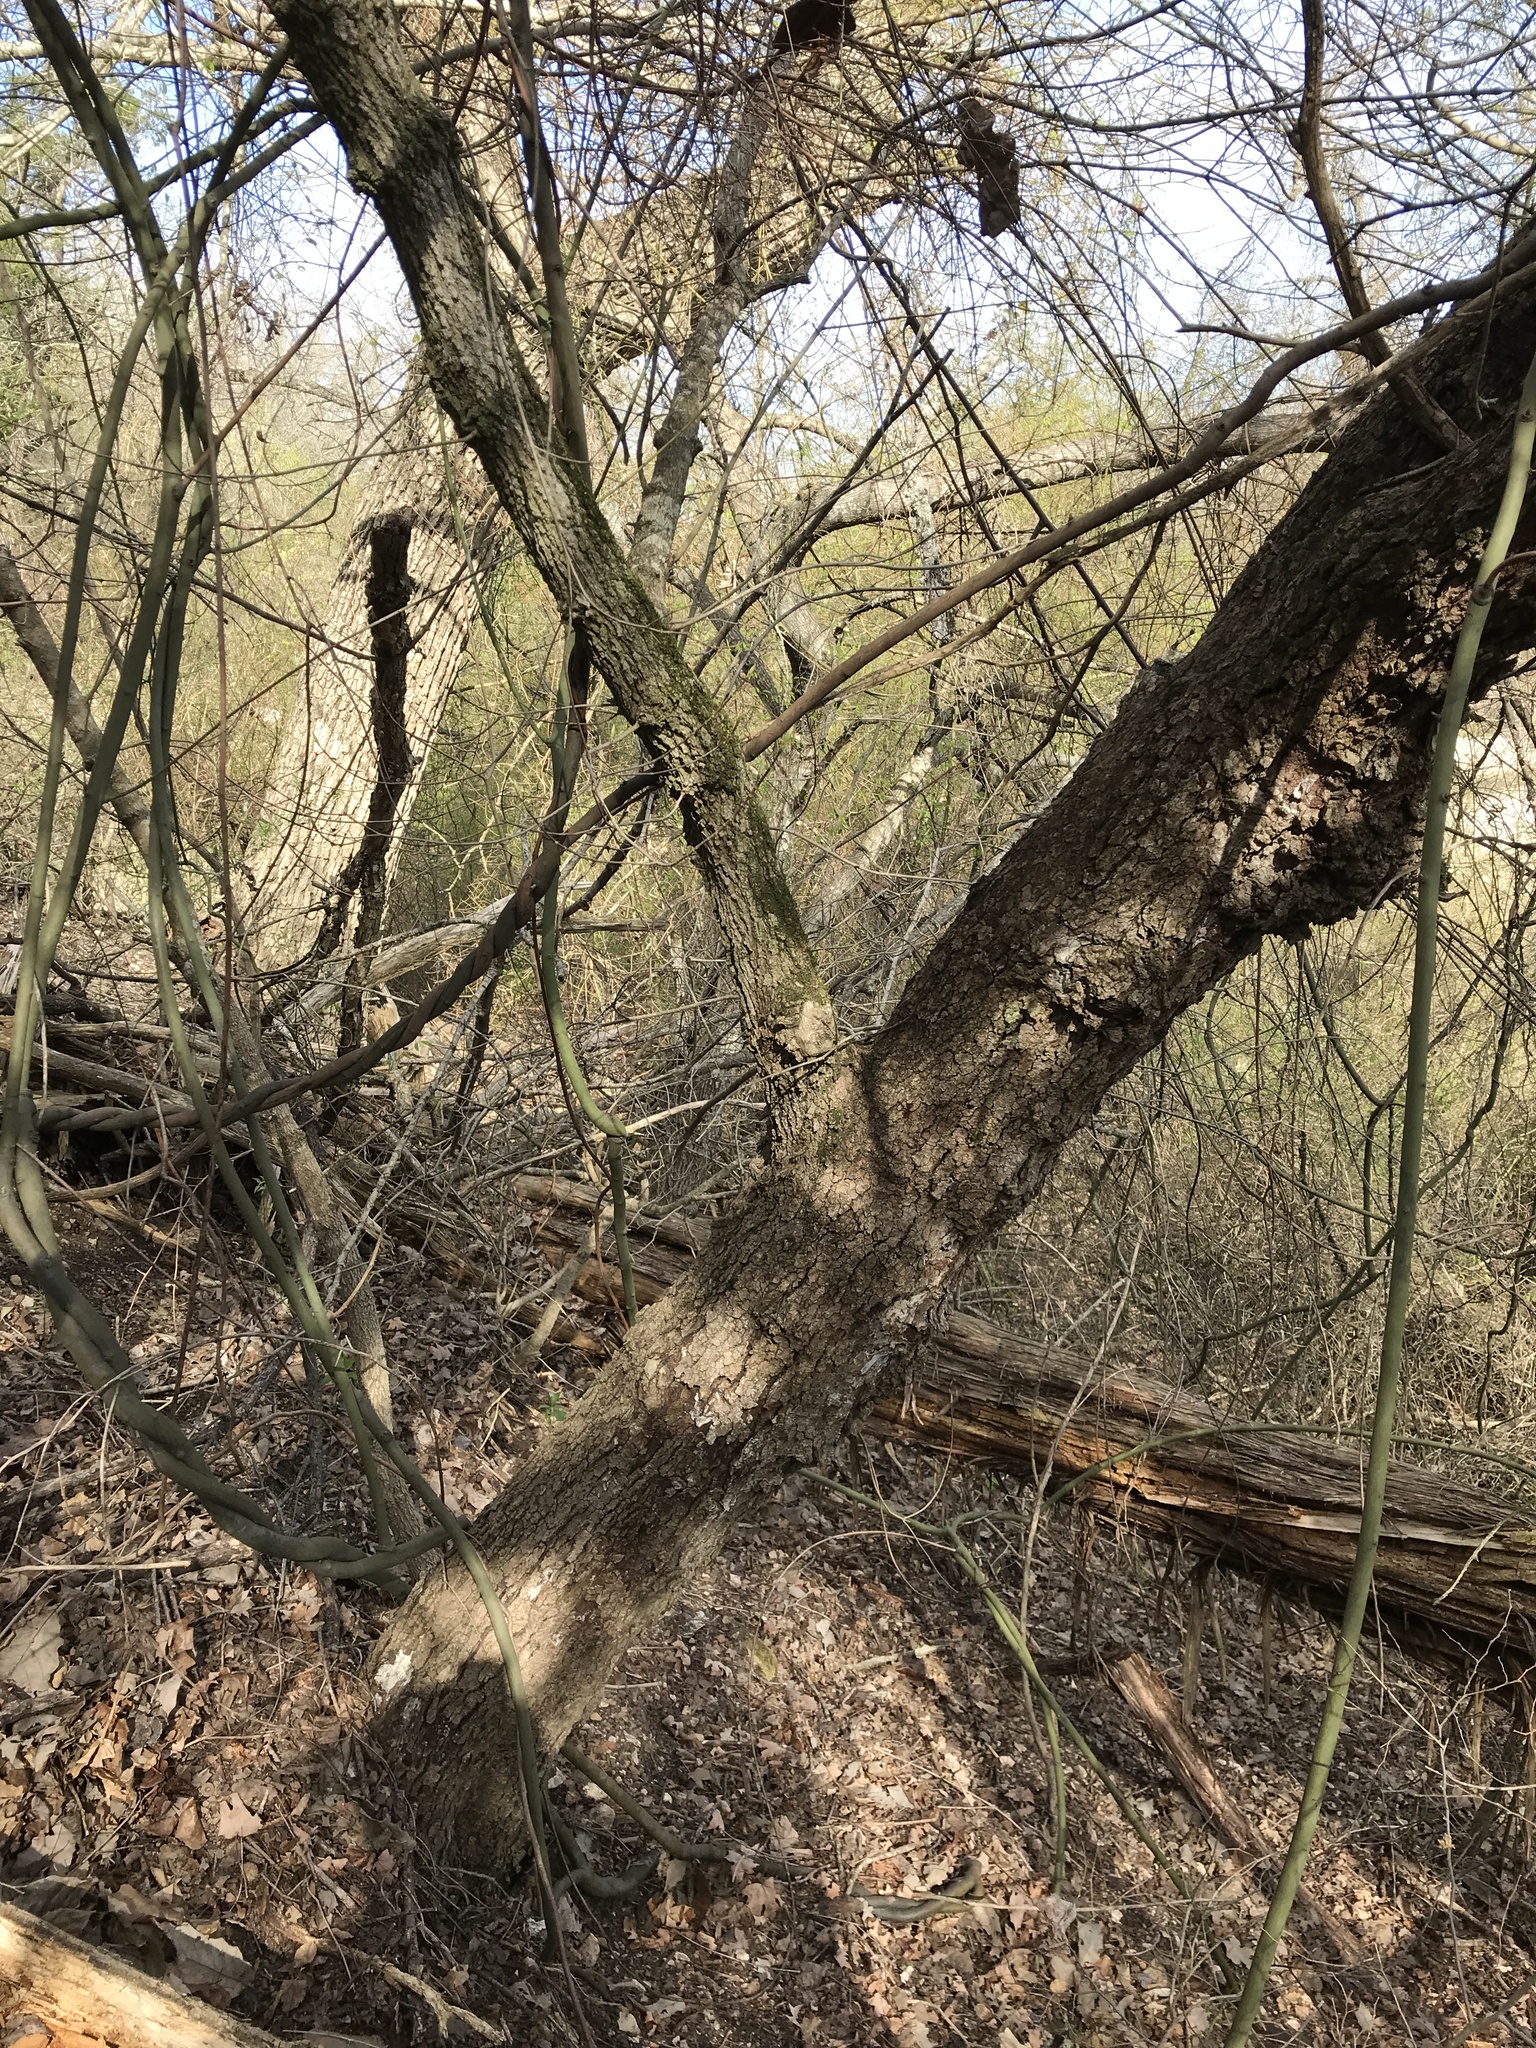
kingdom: Plantae
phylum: Tracheophyta
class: Magnoliopsida
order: Sapindales
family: Sapindaceae
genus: Acer
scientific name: Acer grandidentatum
